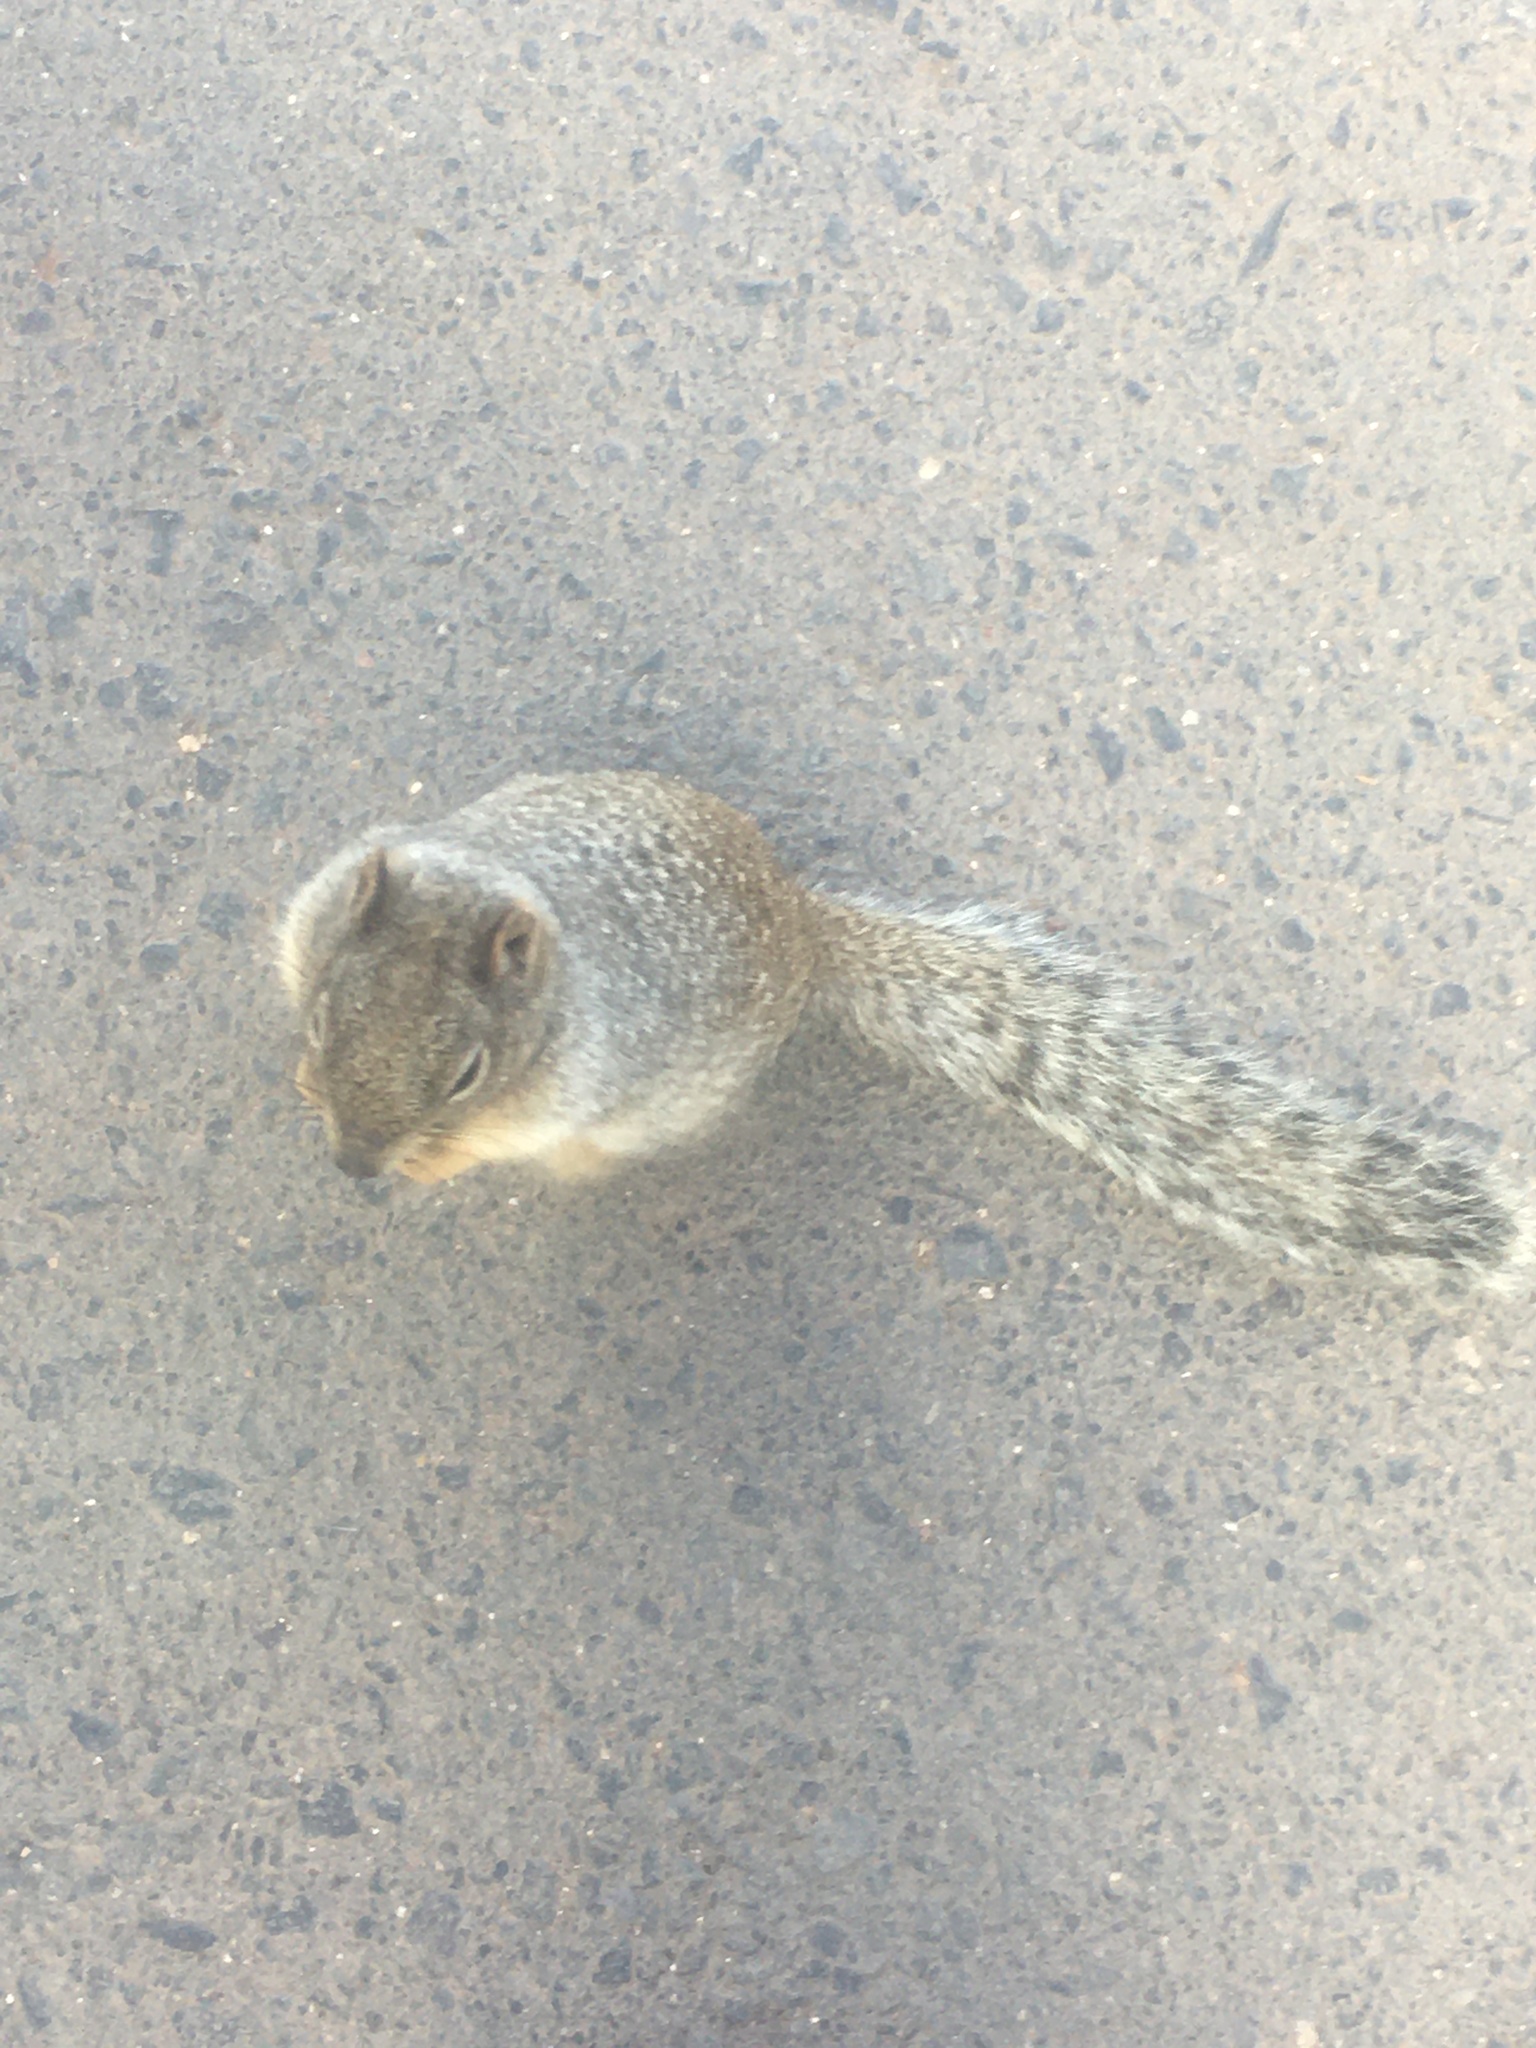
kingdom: Animalia
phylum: Chordata
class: Mammalia
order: Rodentia
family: Sciuridae
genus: Otospermophilus
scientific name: Otospermophilus variegatus
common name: Rock squirrel
